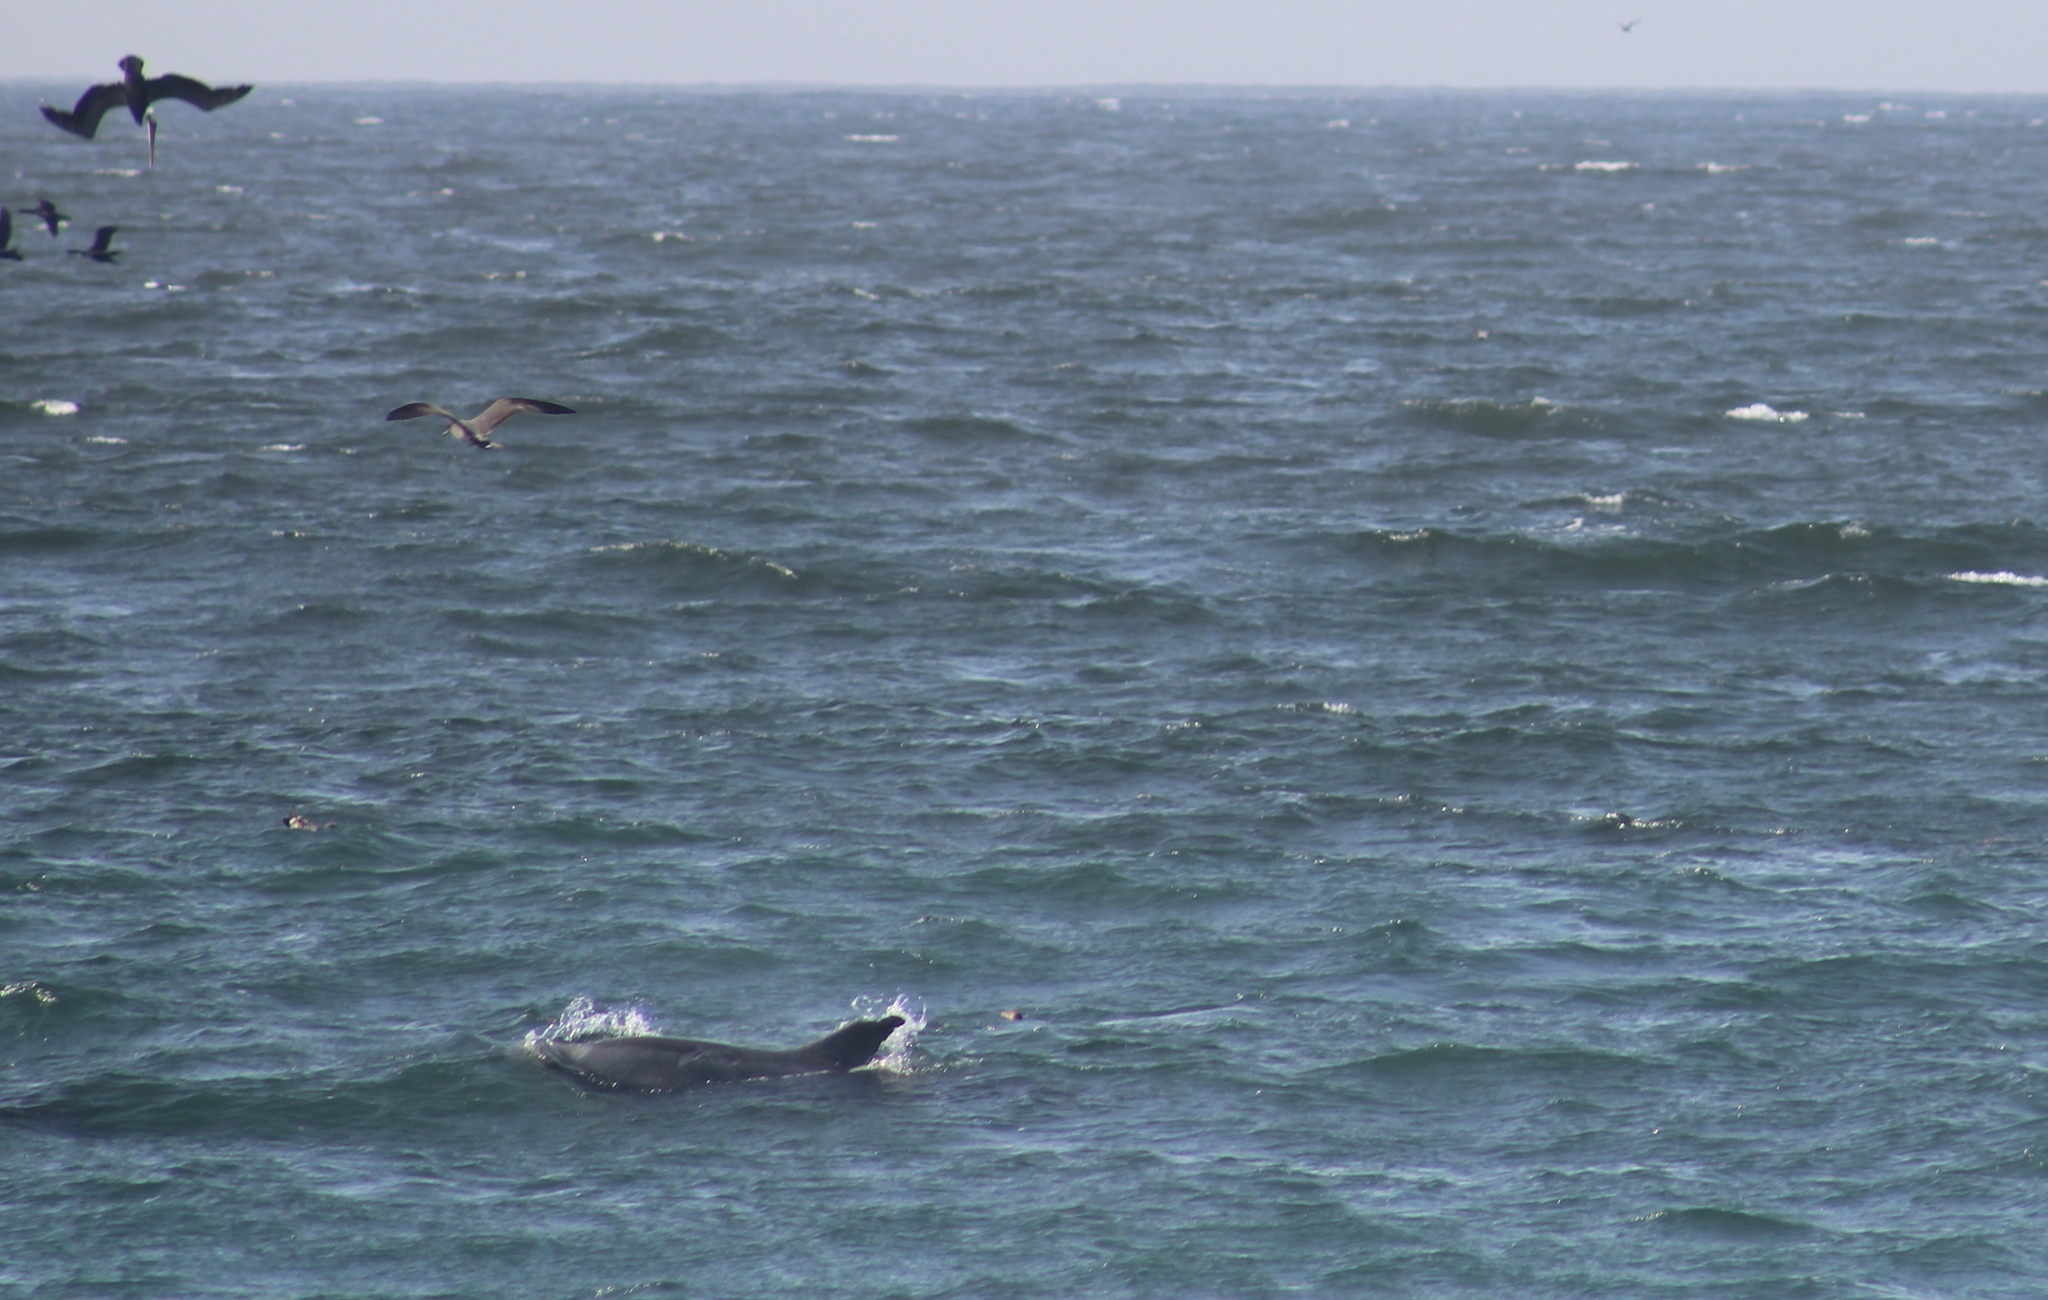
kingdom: Animalia
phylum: Chordata
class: Mammalia
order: Cetacea
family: Delphinidae
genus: Tursiops
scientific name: Tursiops truncatus
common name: Bottlenose dolphin
